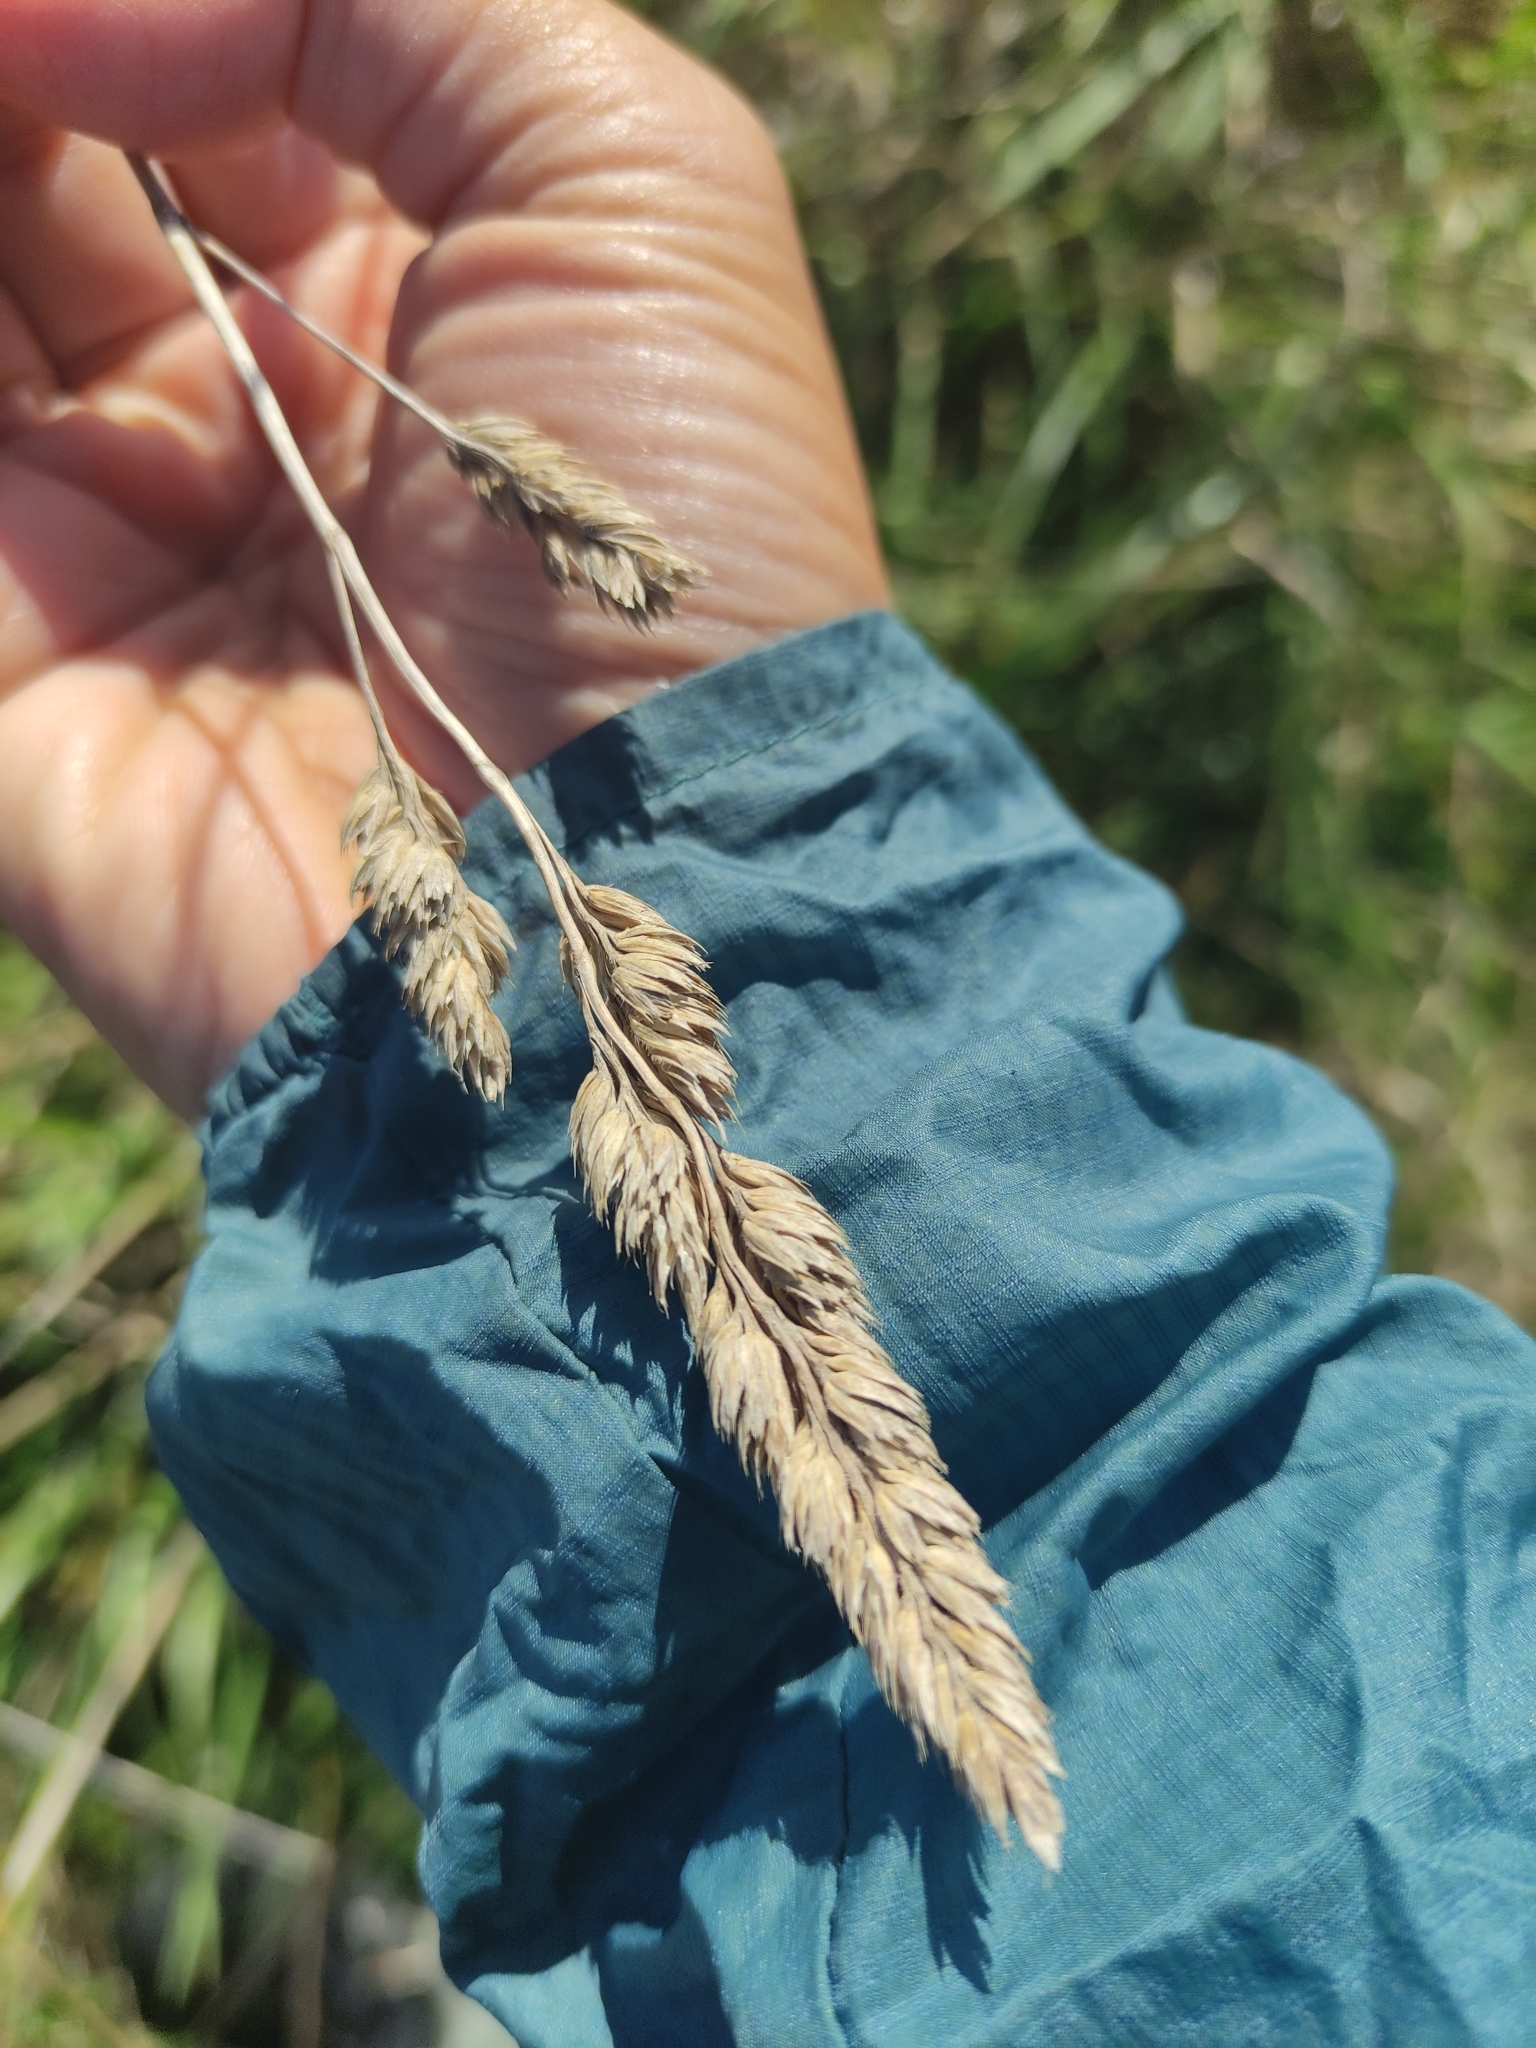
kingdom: Plantae
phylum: Tracheophyta
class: Liliopsida
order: Poales
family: Poaceae
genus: Dactylis
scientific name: Dactylis glomerata
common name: Orchardgrass
